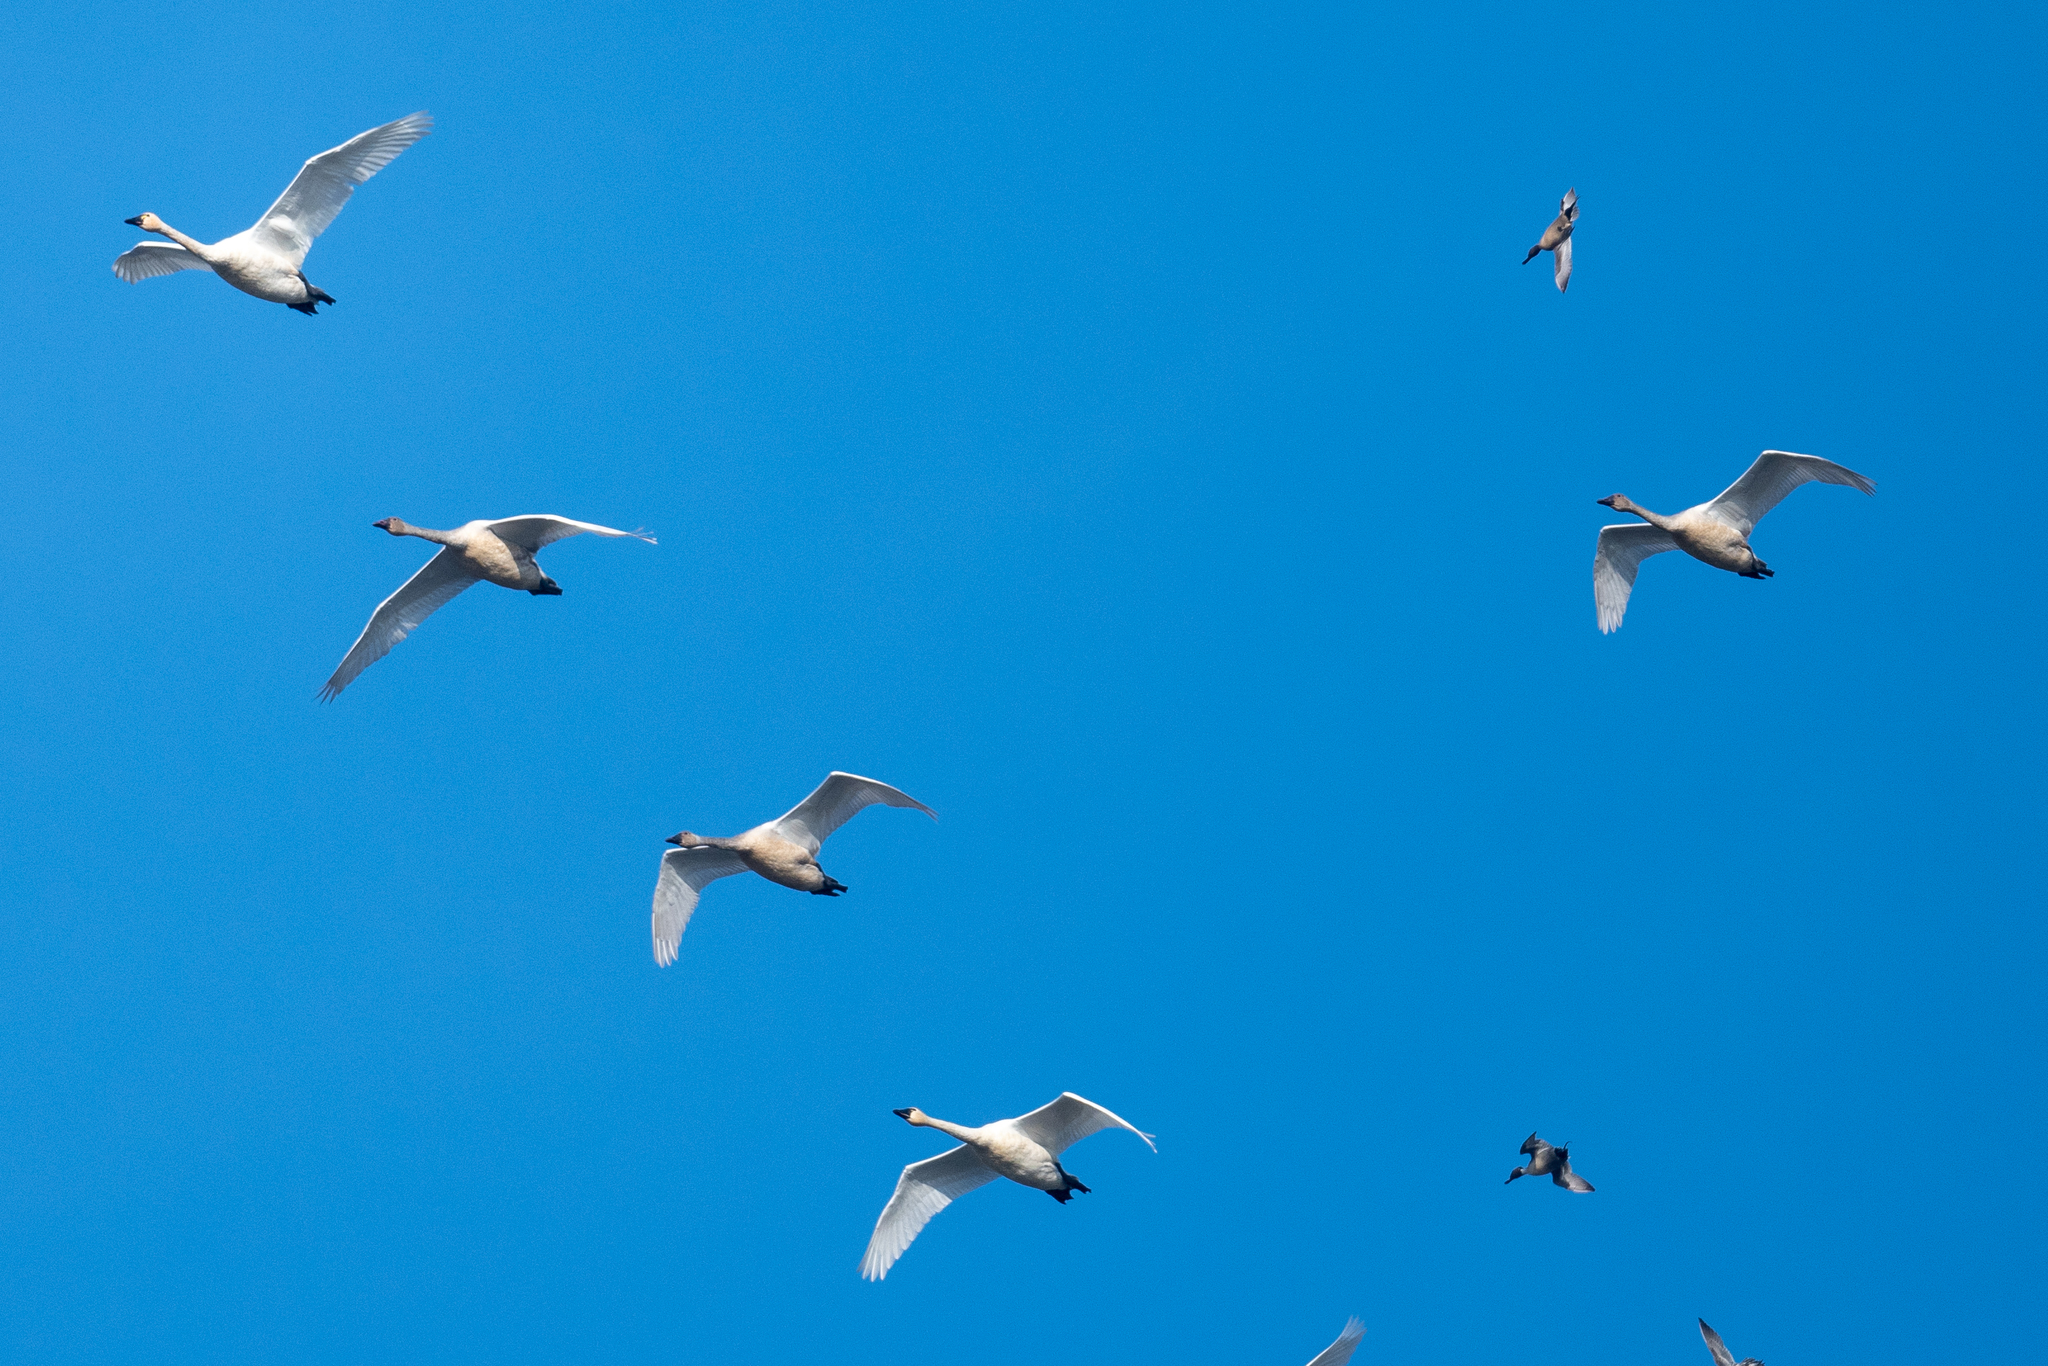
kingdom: Animalia
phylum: Chordata
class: Aves
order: Anseriformes
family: Anatidae
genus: Cygnus
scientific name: Cygnus columbianus
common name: Tundra swan
